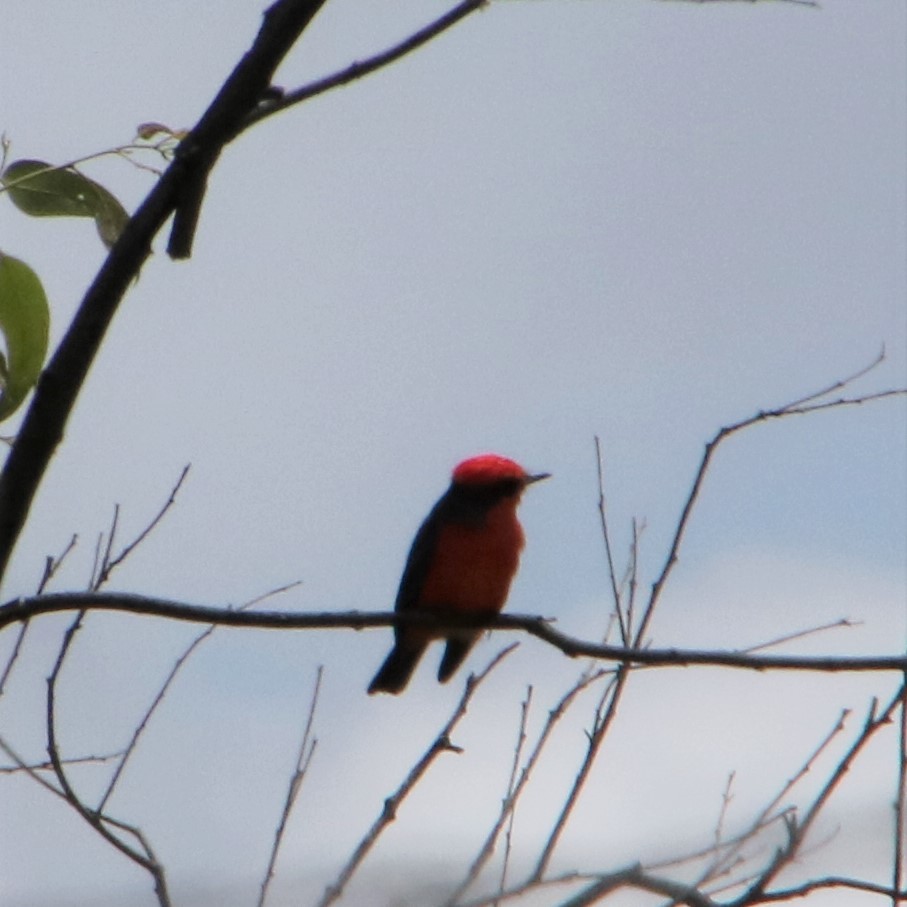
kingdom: Animalia
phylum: Chordata
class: Aves
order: Passeriformes
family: Tyrannidae
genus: Pyrocephalus
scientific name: Pyrocephalus rubinus
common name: Vermilion flycatcher
